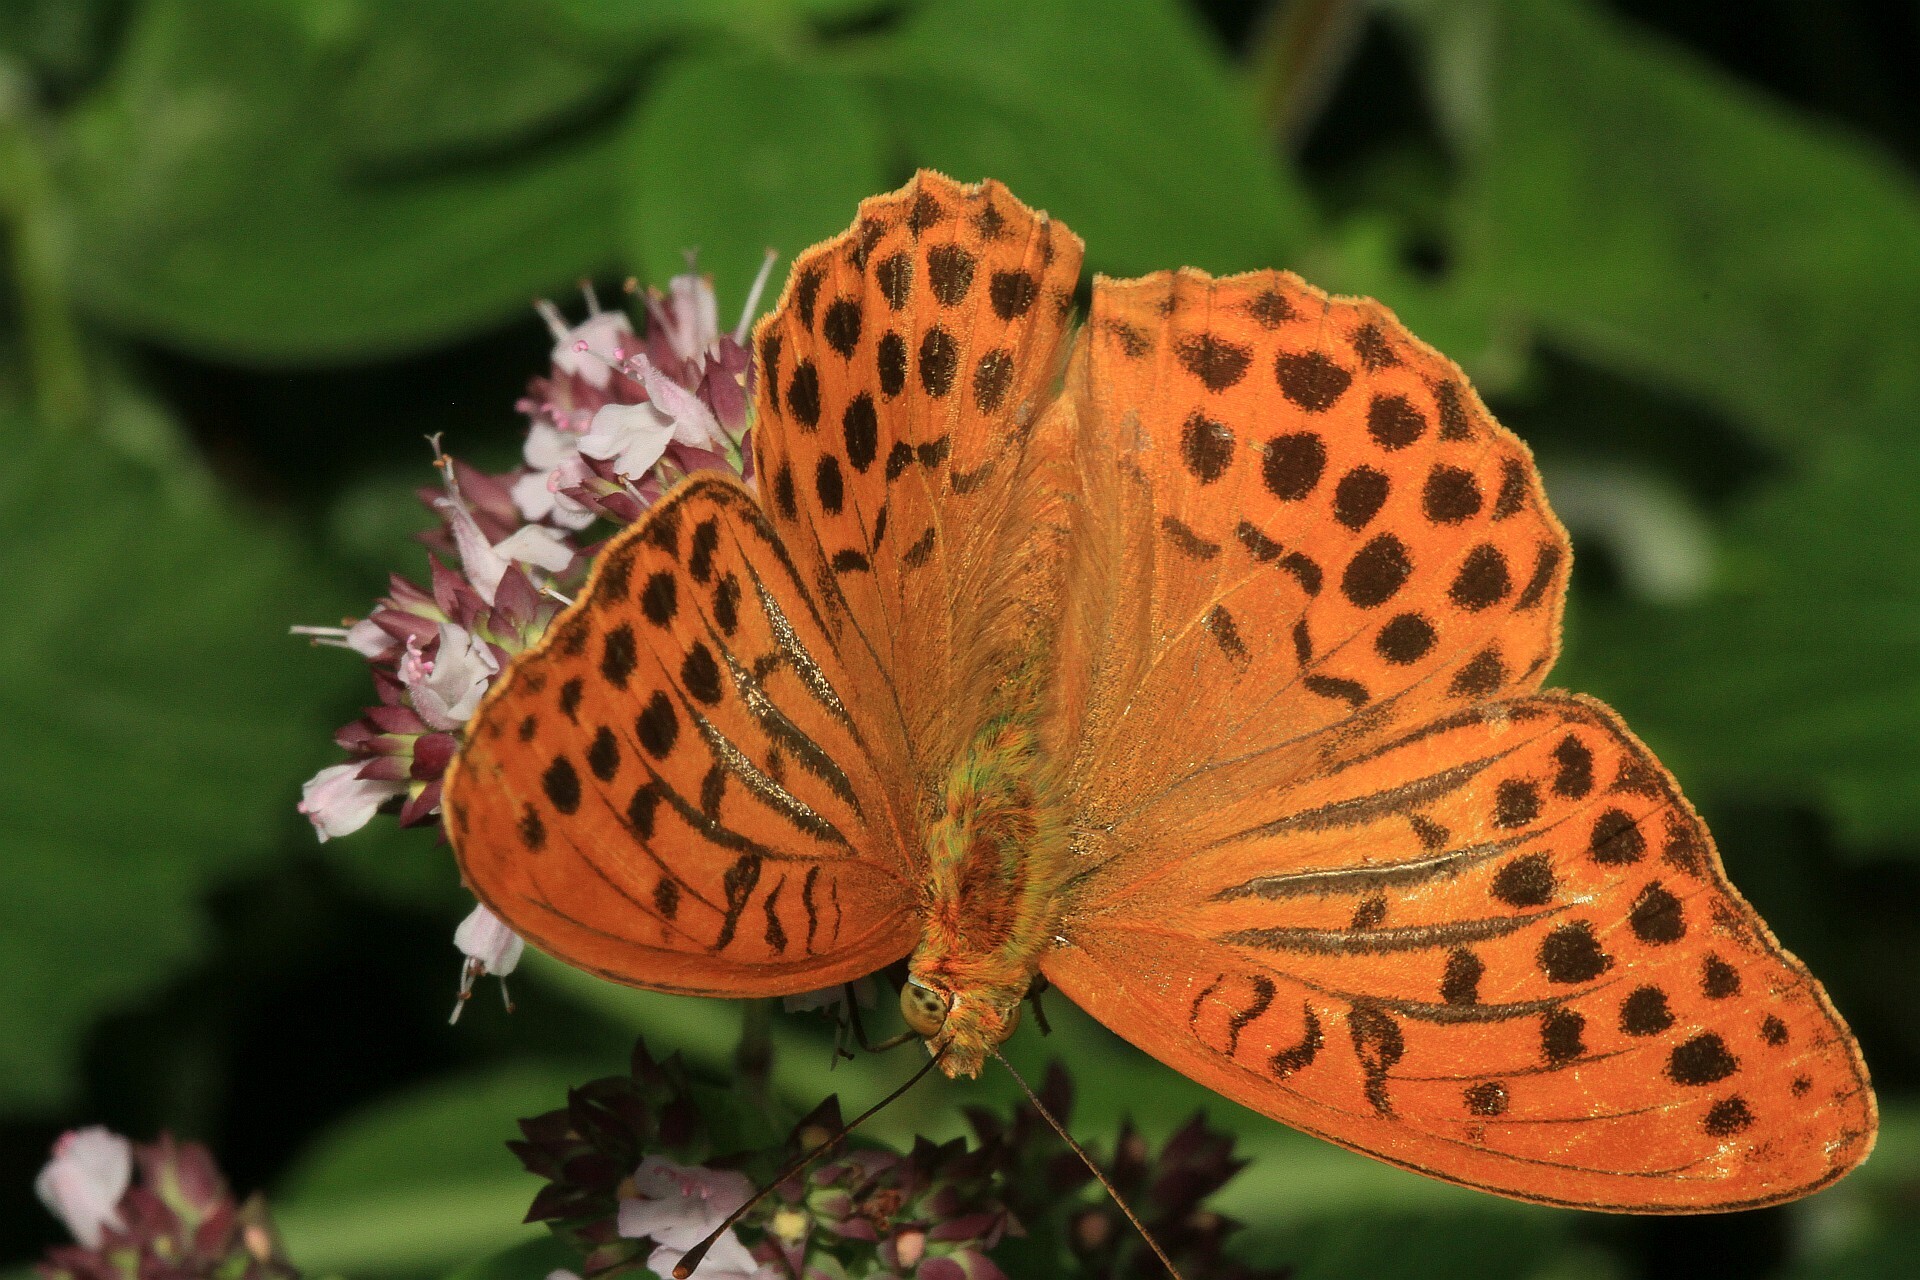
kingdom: Animalia
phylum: Arthropoda
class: Insecta
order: Lepidoptera
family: Nymphalidae
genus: Argynnis
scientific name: Argynnis paphia
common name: Silver-washed fritillary
